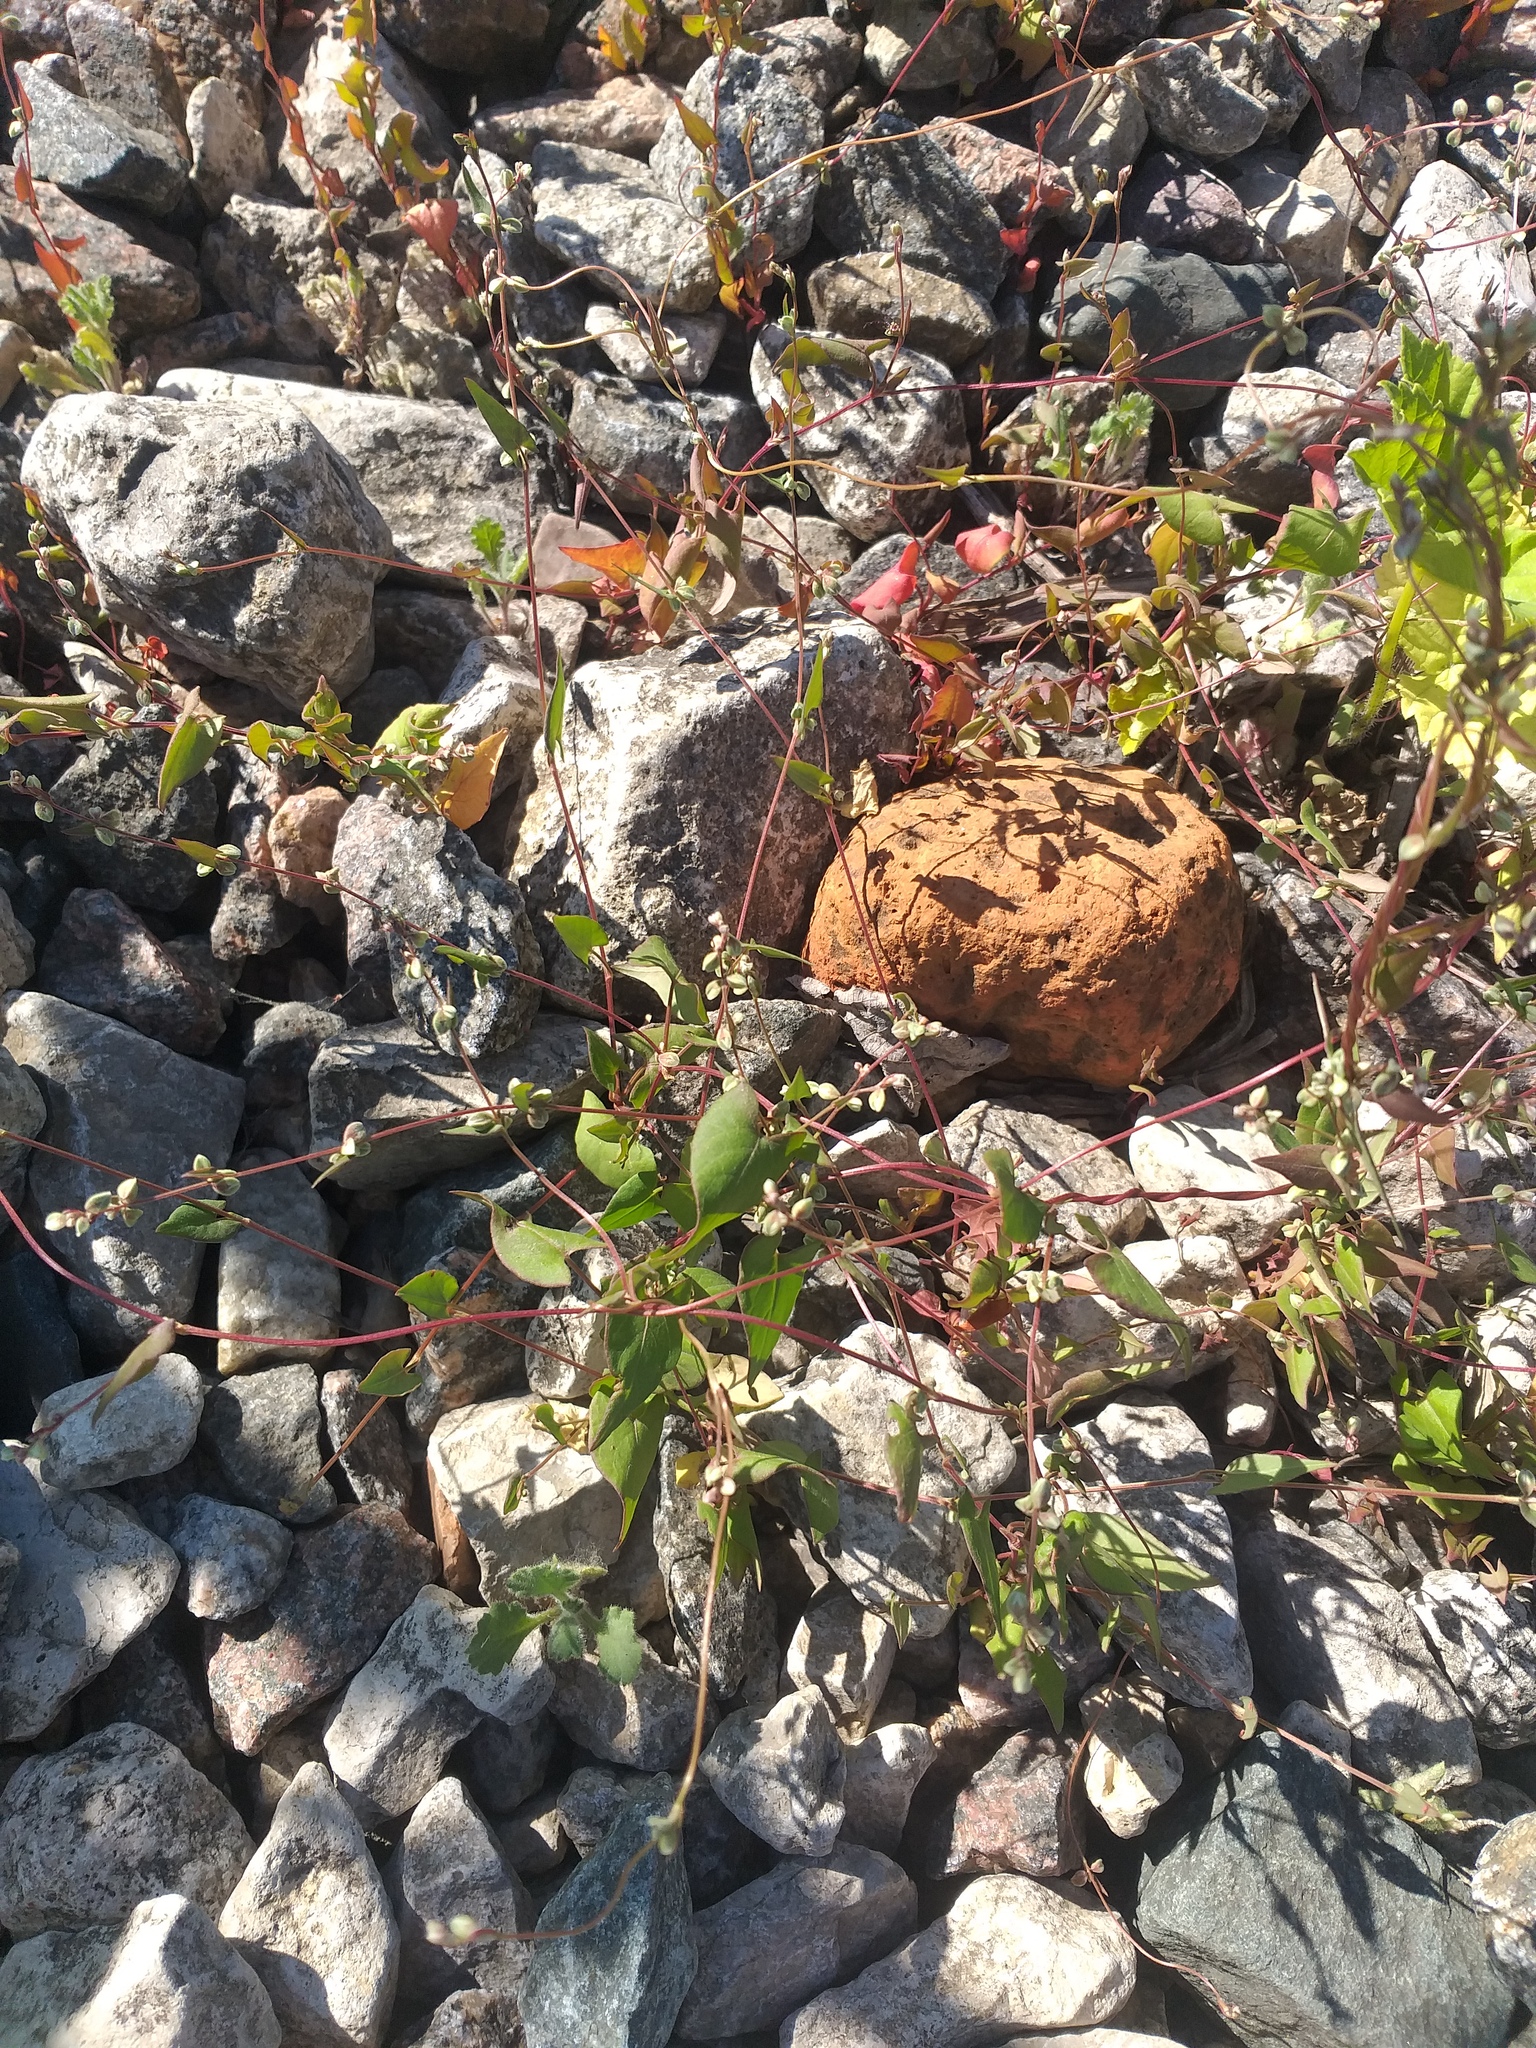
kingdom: Plantae
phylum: Tracheophyta
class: Magnoliopsida
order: Caryophyllales
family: Polygonaceae
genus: Fallopia
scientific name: Fallopia convolvulus
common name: Black bindweed
